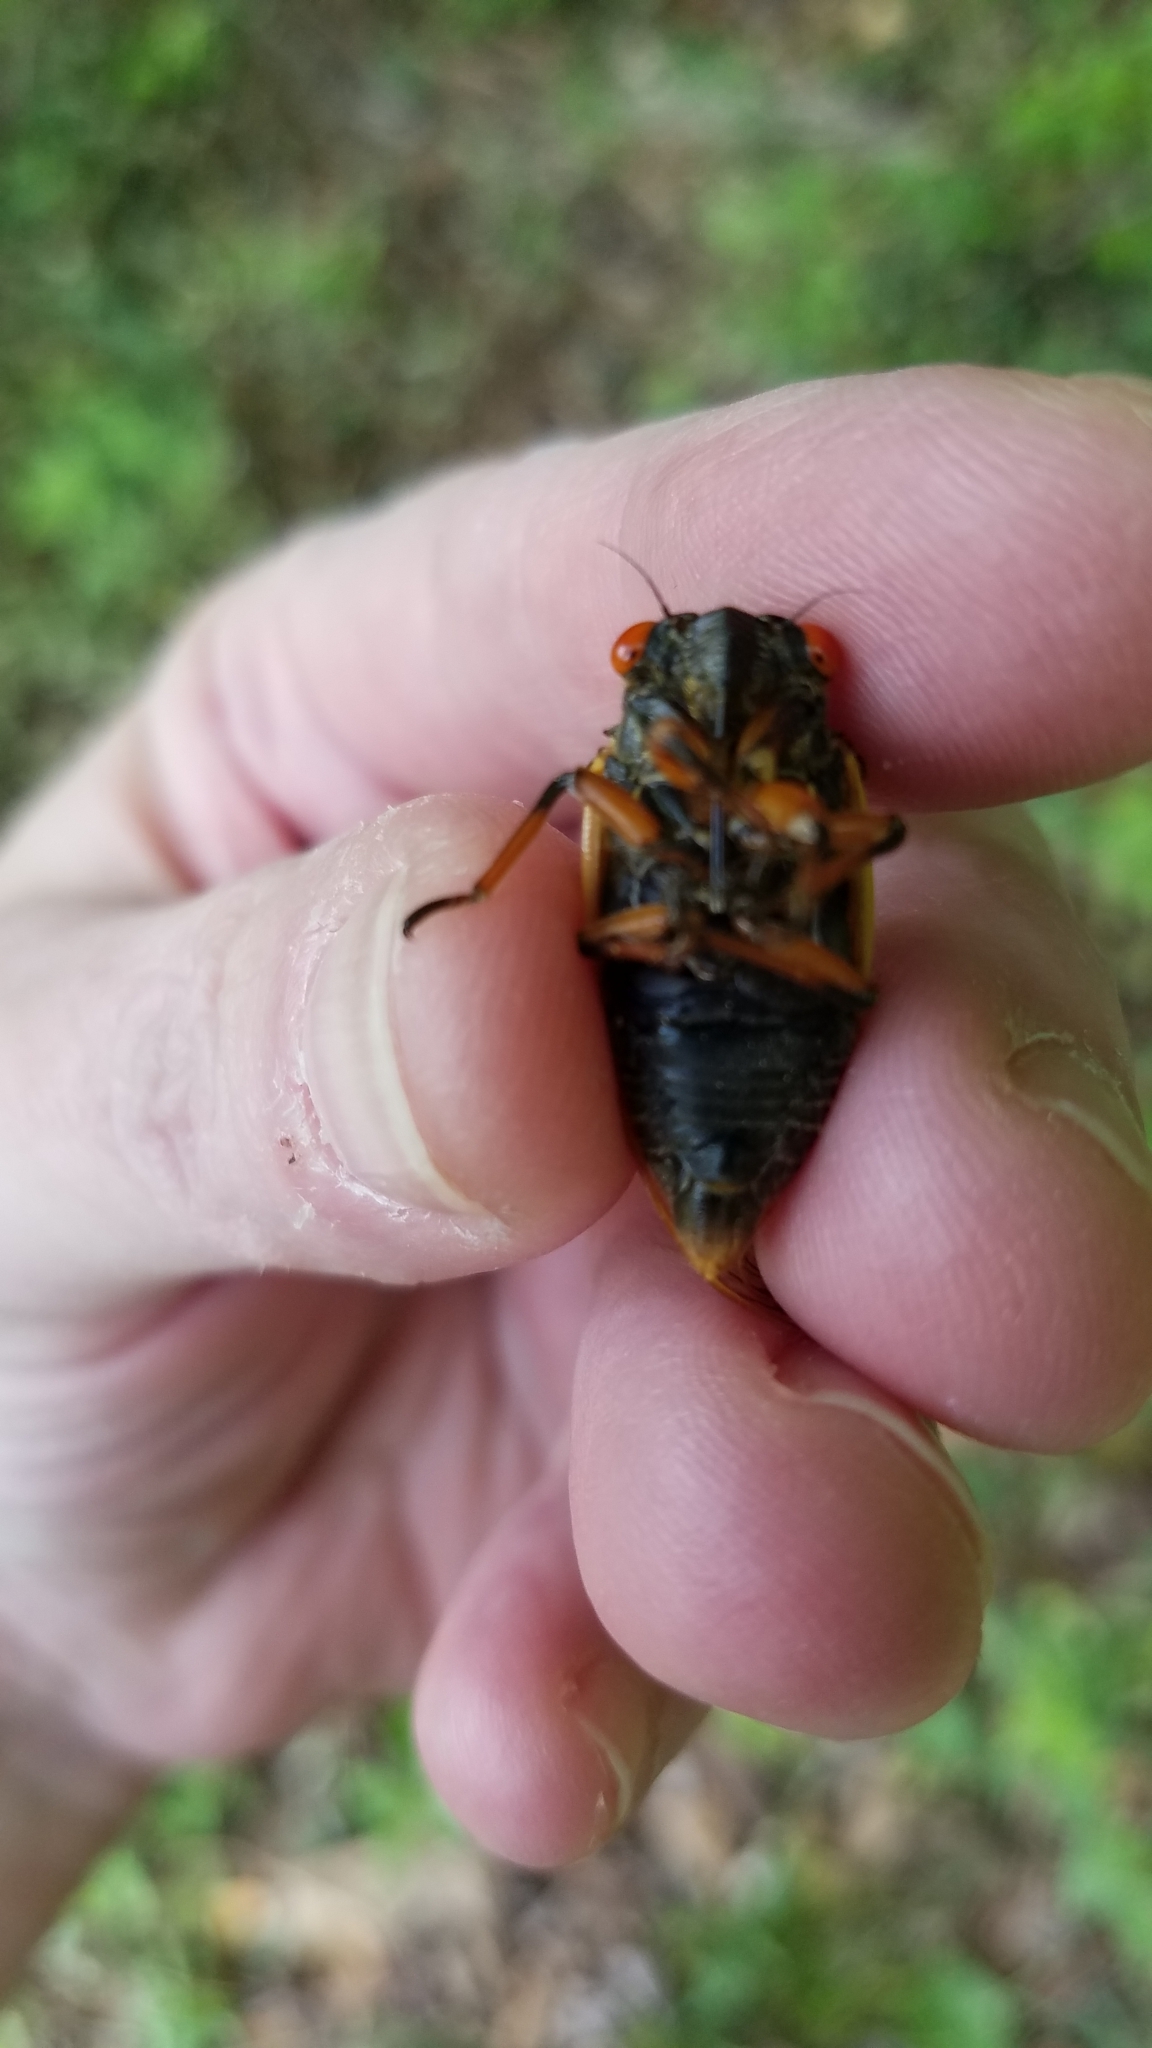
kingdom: Animalia
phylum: Arthropoda
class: Insecta
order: Hemiptera
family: Cicadidae
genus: Magicicada
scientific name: Magicicada cassini
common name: Cassin's 17-year cicada
